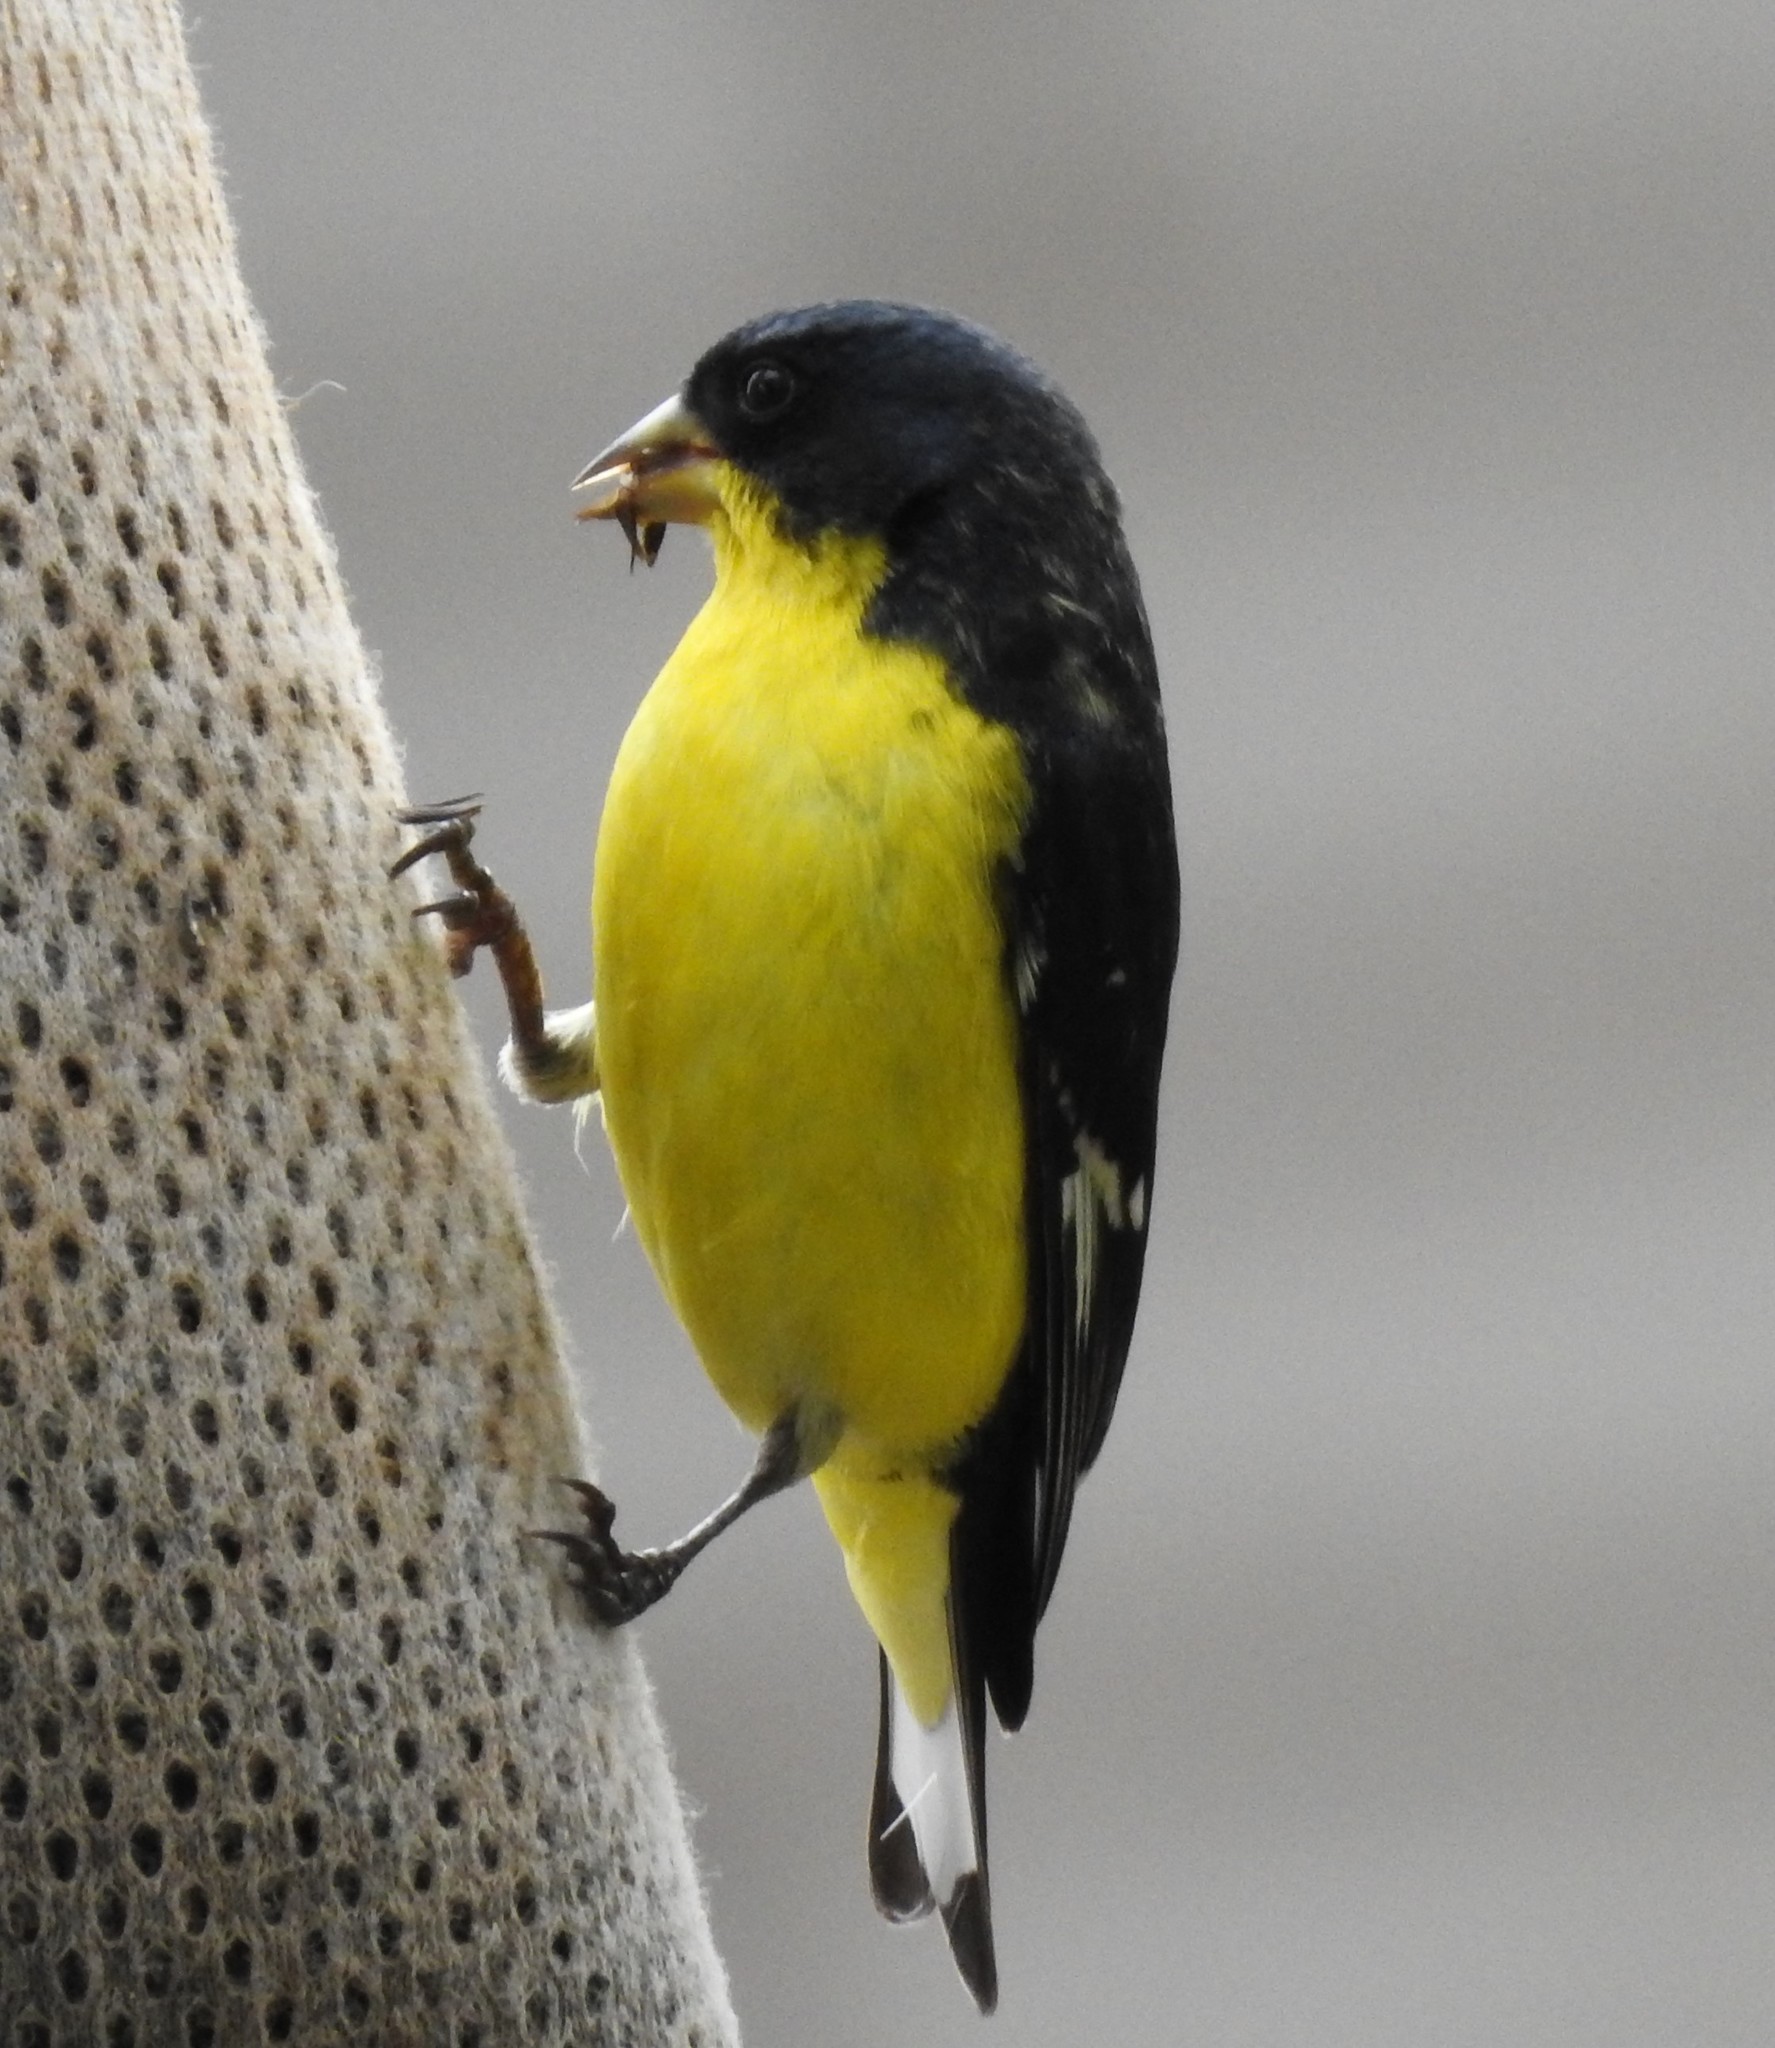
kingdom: Animalia
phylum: Chordata
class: Aves
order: Passeriformes
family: Fringillidae
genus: Spinus
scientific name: Spinus psaltria
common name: Lesser goldfinch
